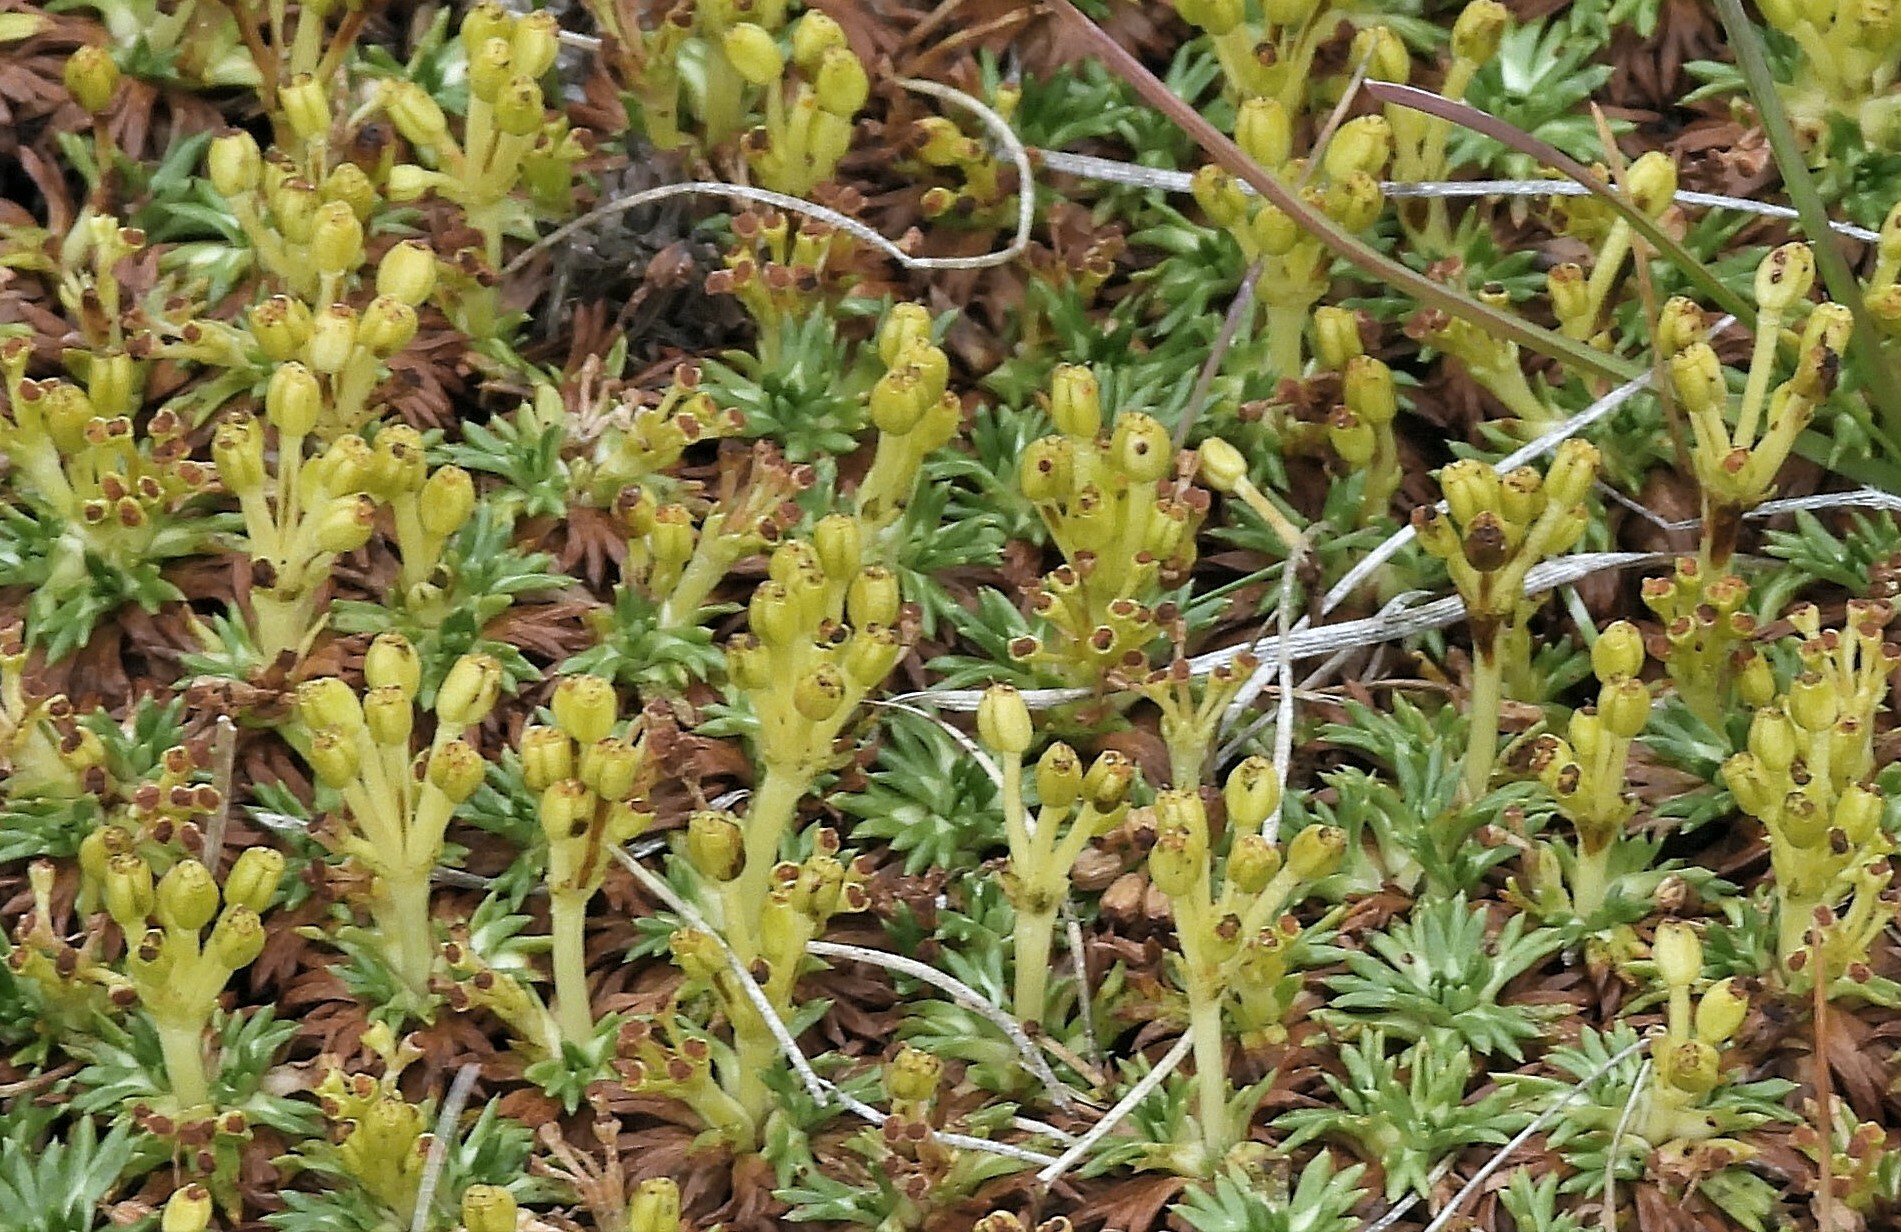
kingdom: Plantae
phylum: Tracheophyta
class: Magnoliopsida
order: Apiales
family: Apiaceae
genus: Azorella
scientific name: Azorella trifurcata
